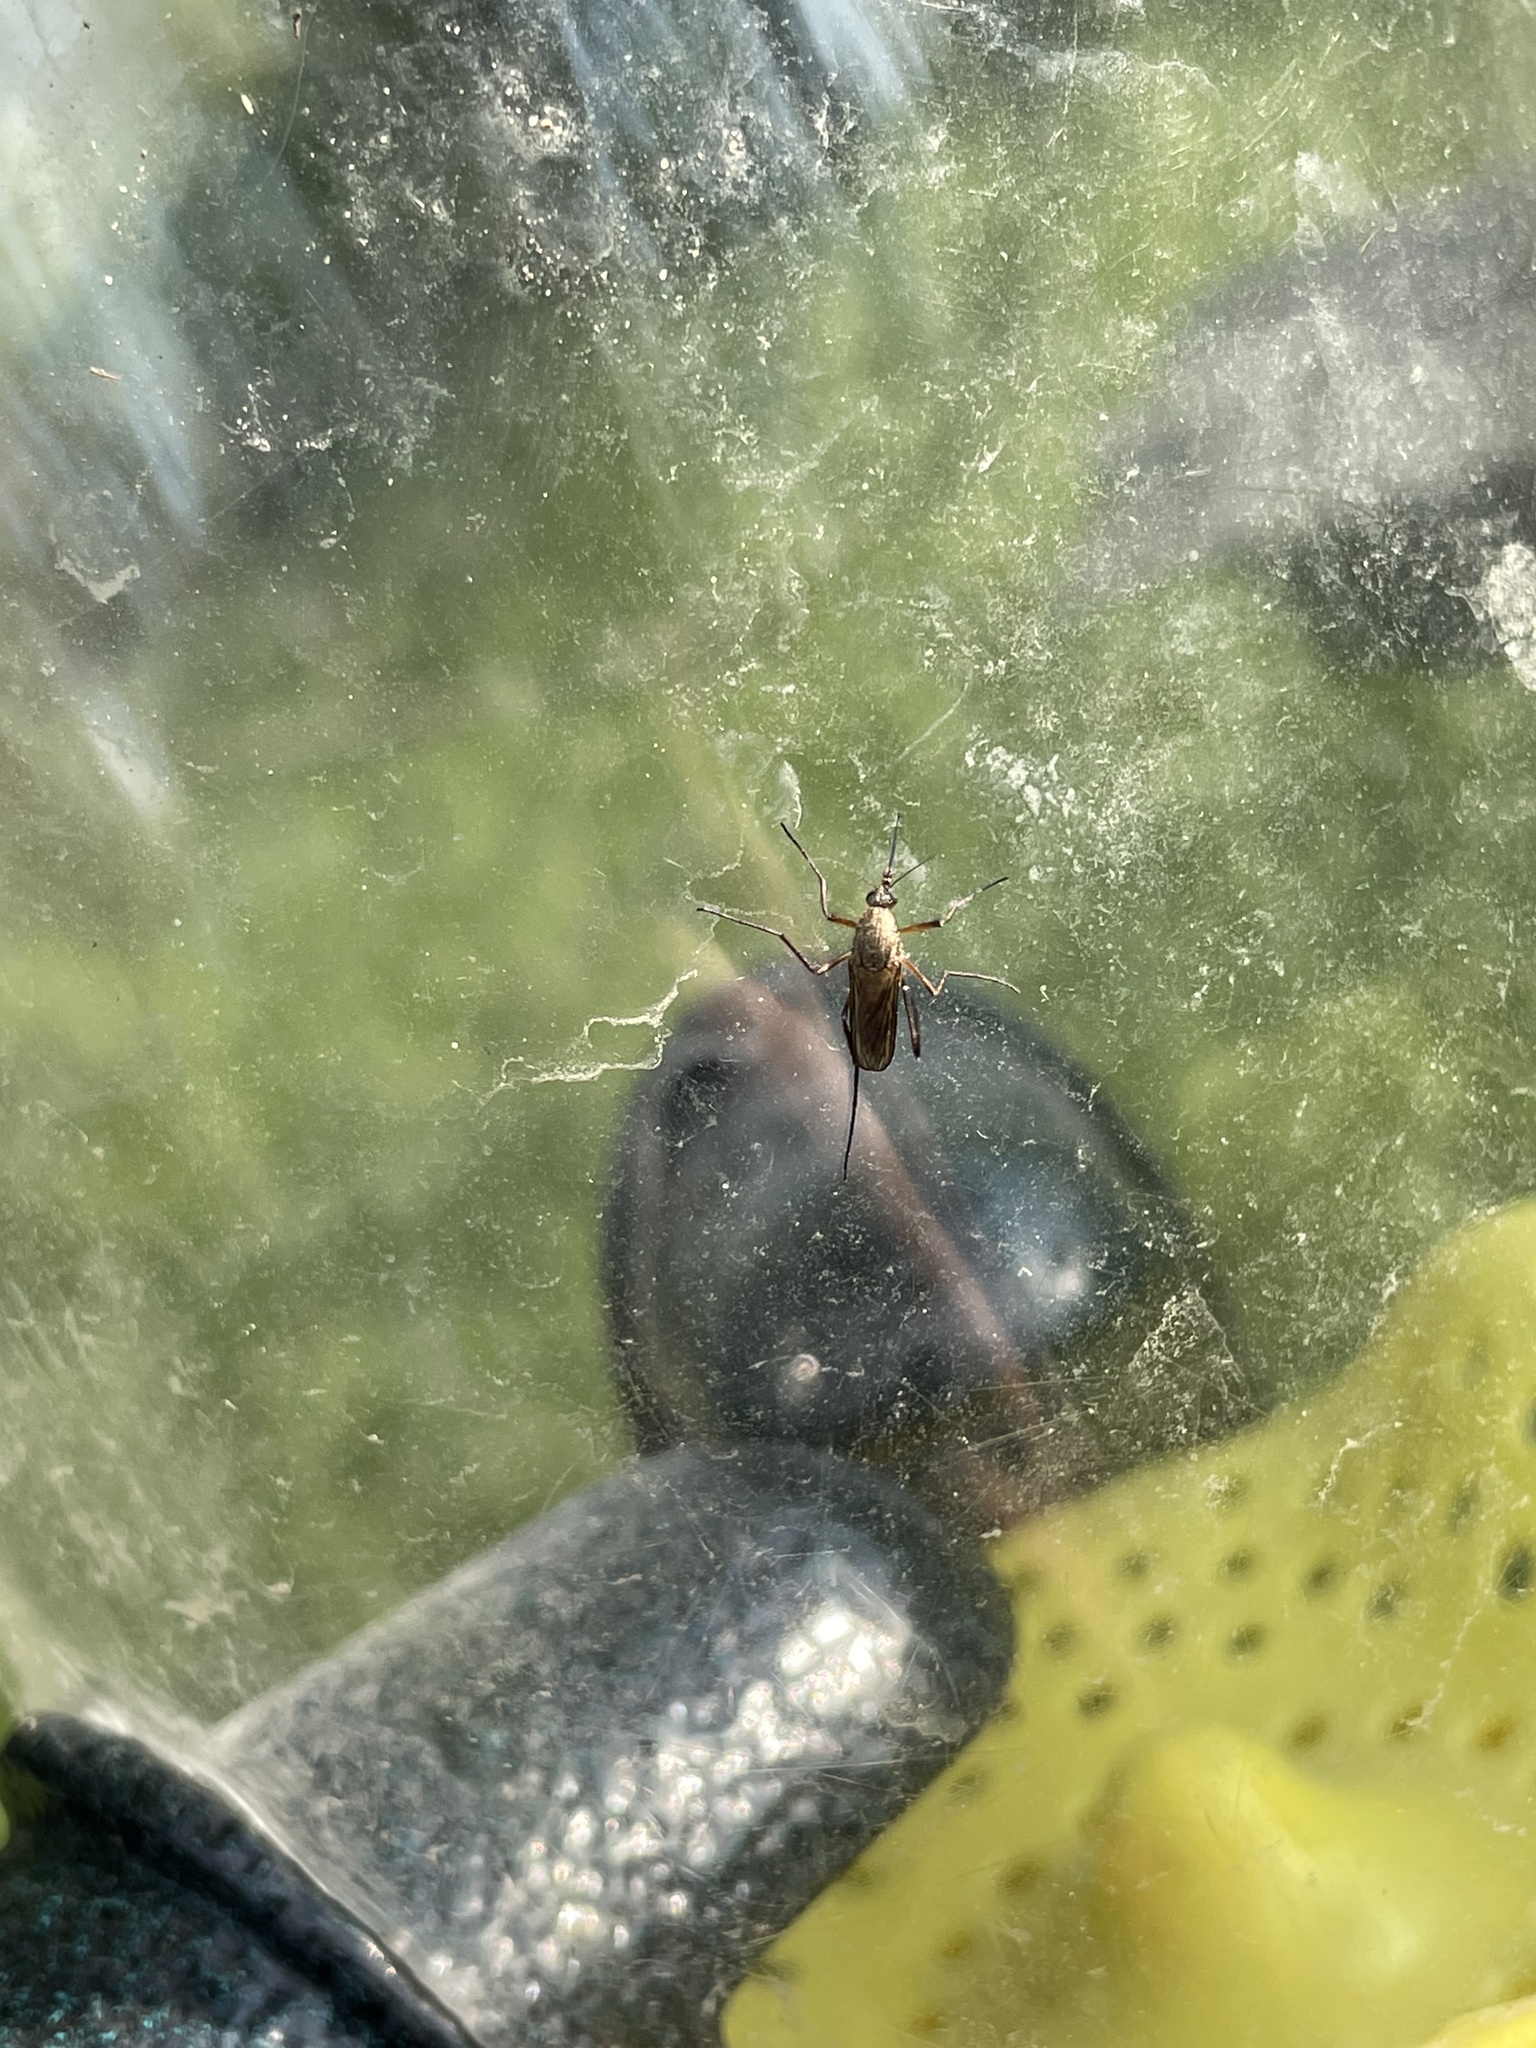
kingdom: Animalia
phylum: Arthropoda
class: Insecta
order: Diptera
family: Culicidae
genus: Psorophora
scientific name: Psorophora cyanescens
